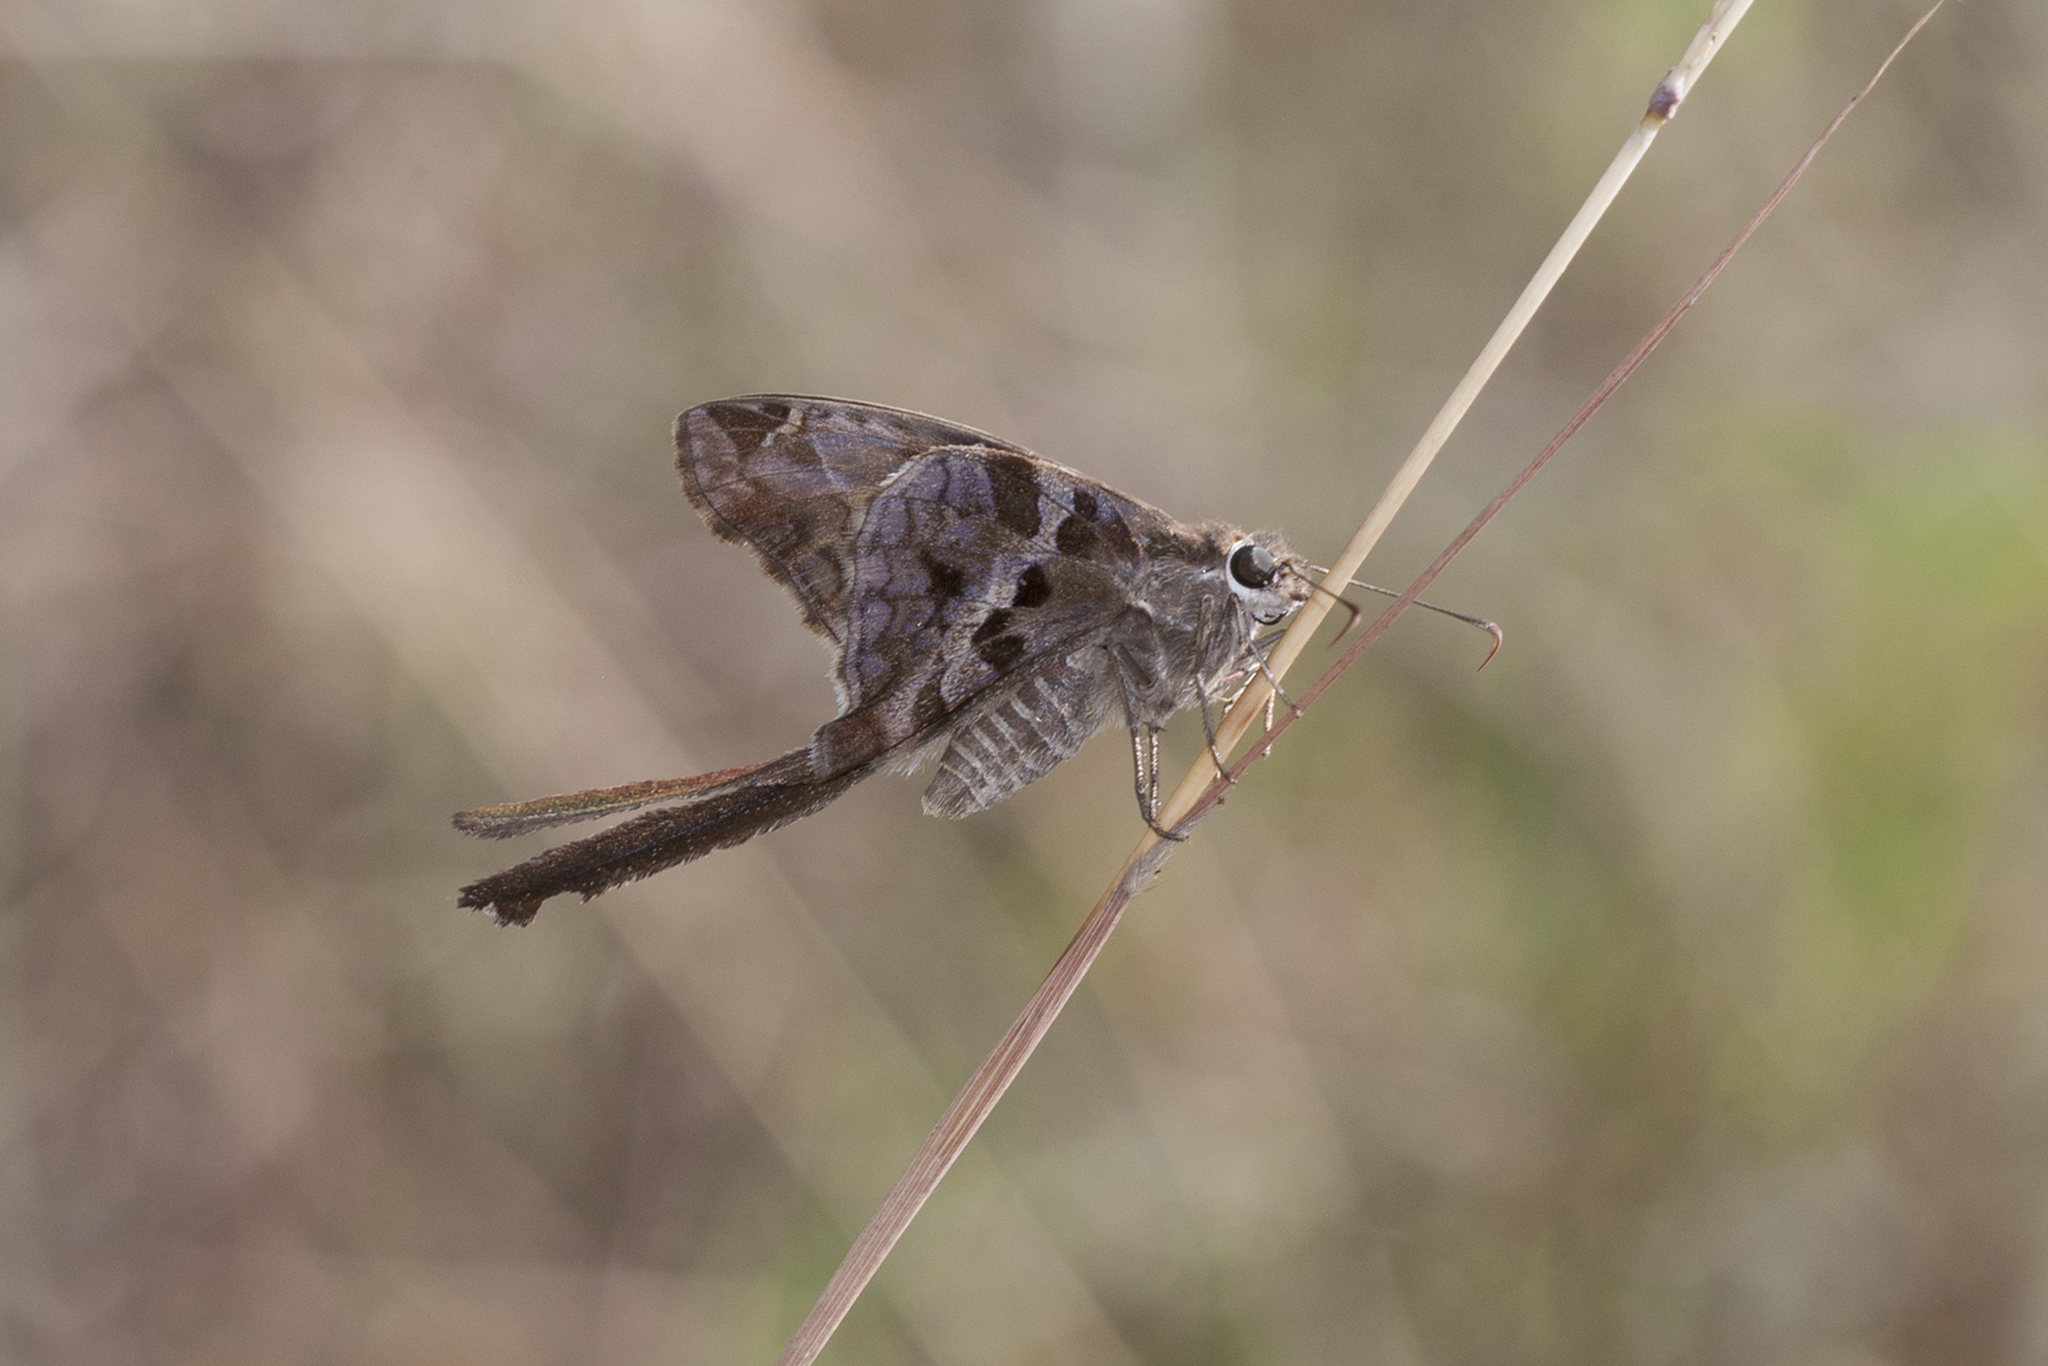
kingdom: Animalia
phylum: Arthropoda
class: Insecta
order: Lepidoptera
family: Hesperiidae
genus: Chioides
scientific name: Chioides catillus
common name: Silverbanded skipper
